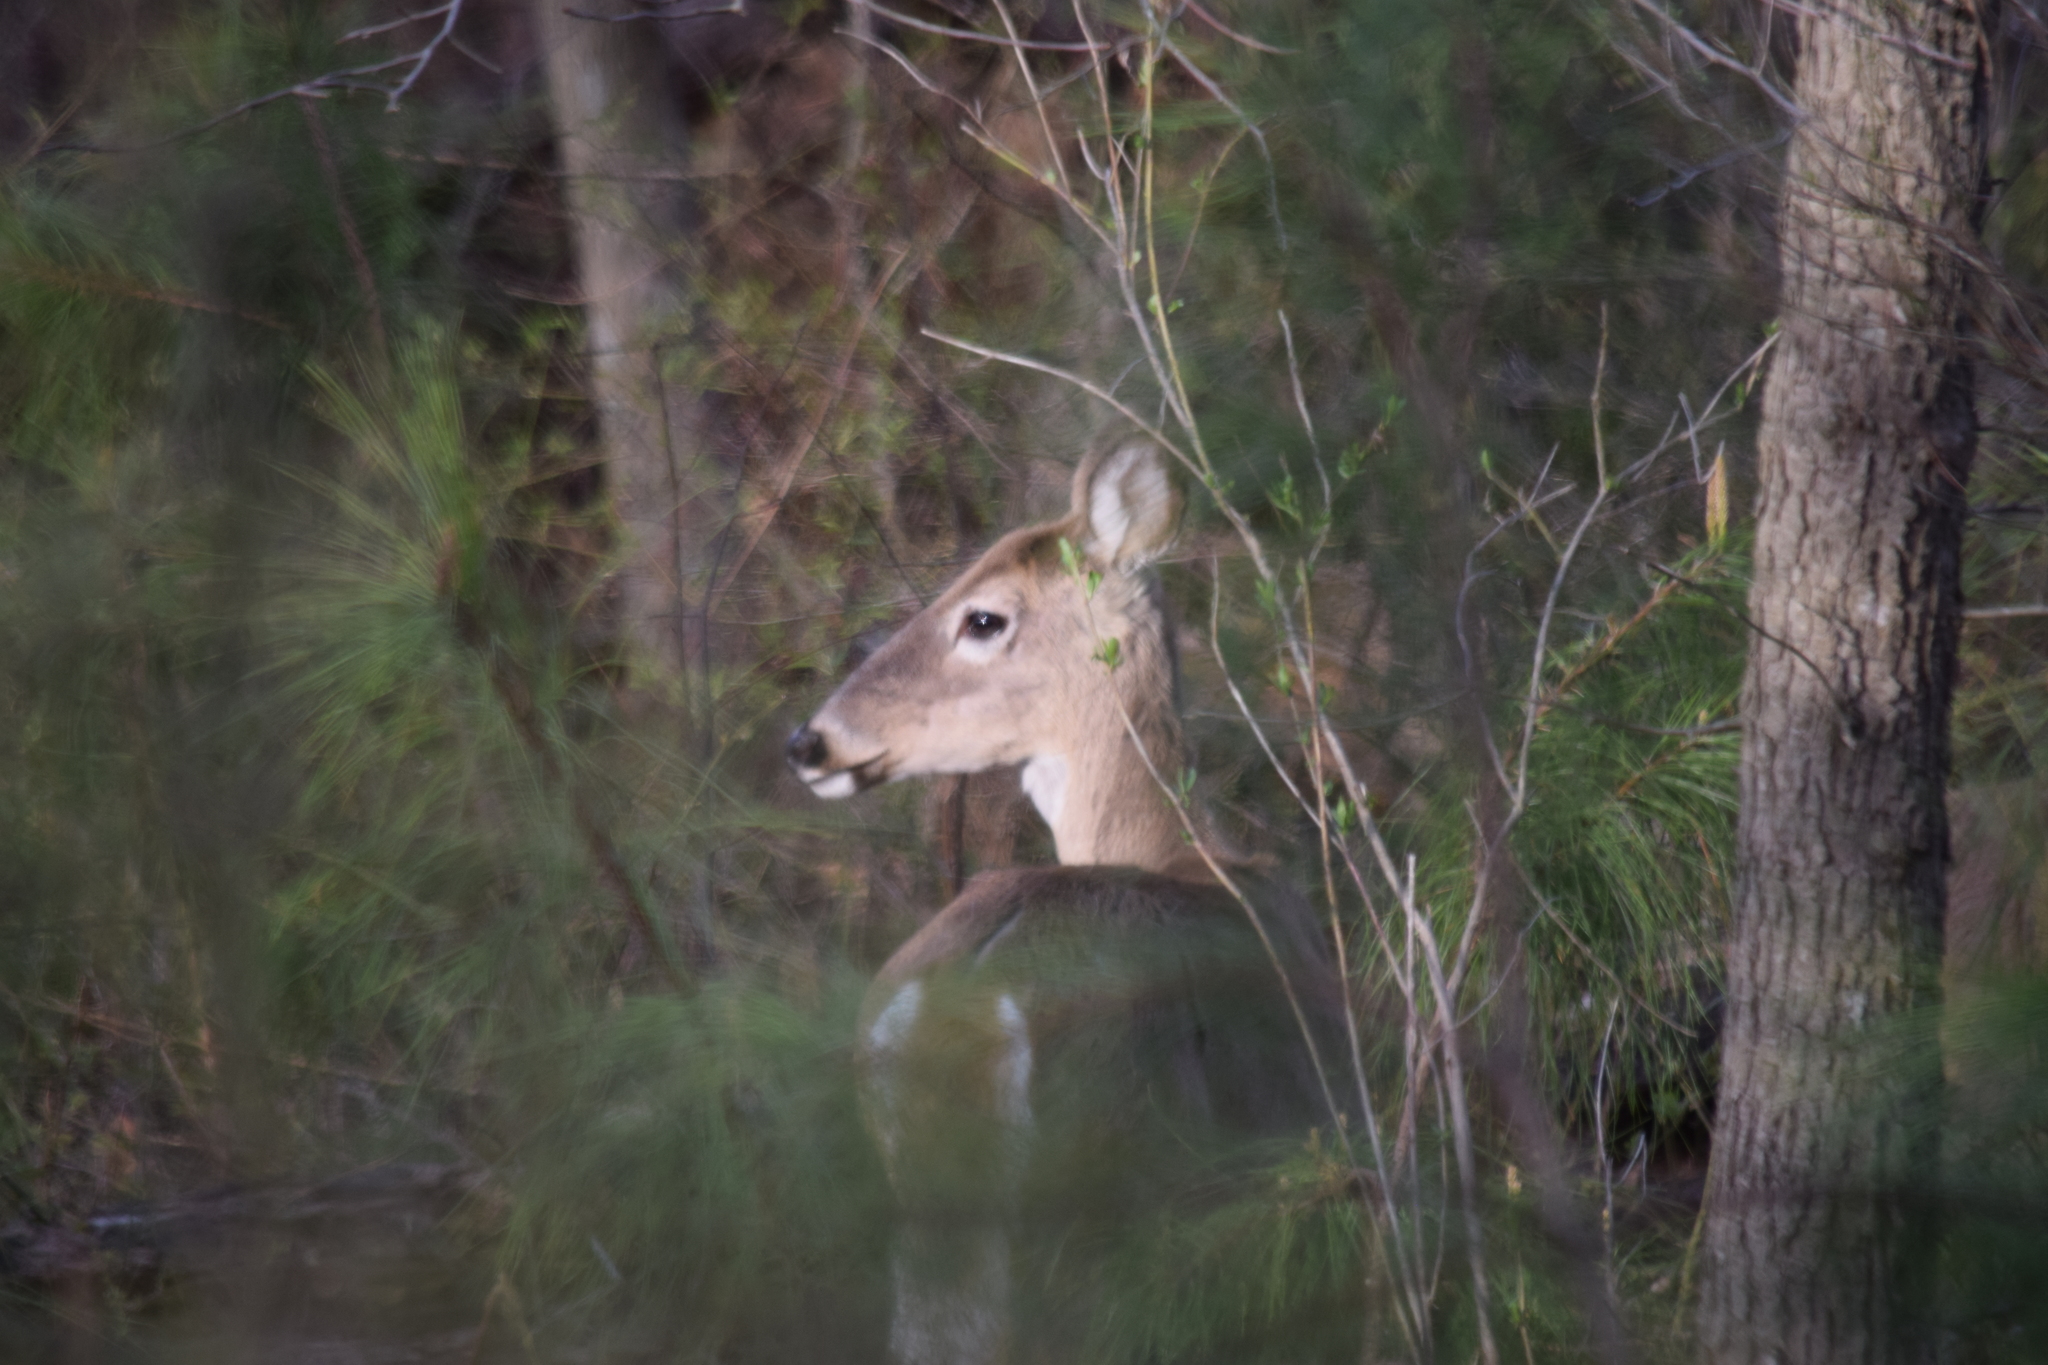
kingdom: Animalia
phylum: Chordata
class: Mammalia
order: Artiodactyla
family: Cervidae
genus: Odocoileus
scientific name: Odocoileus virginianus
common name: White-tailed deer
